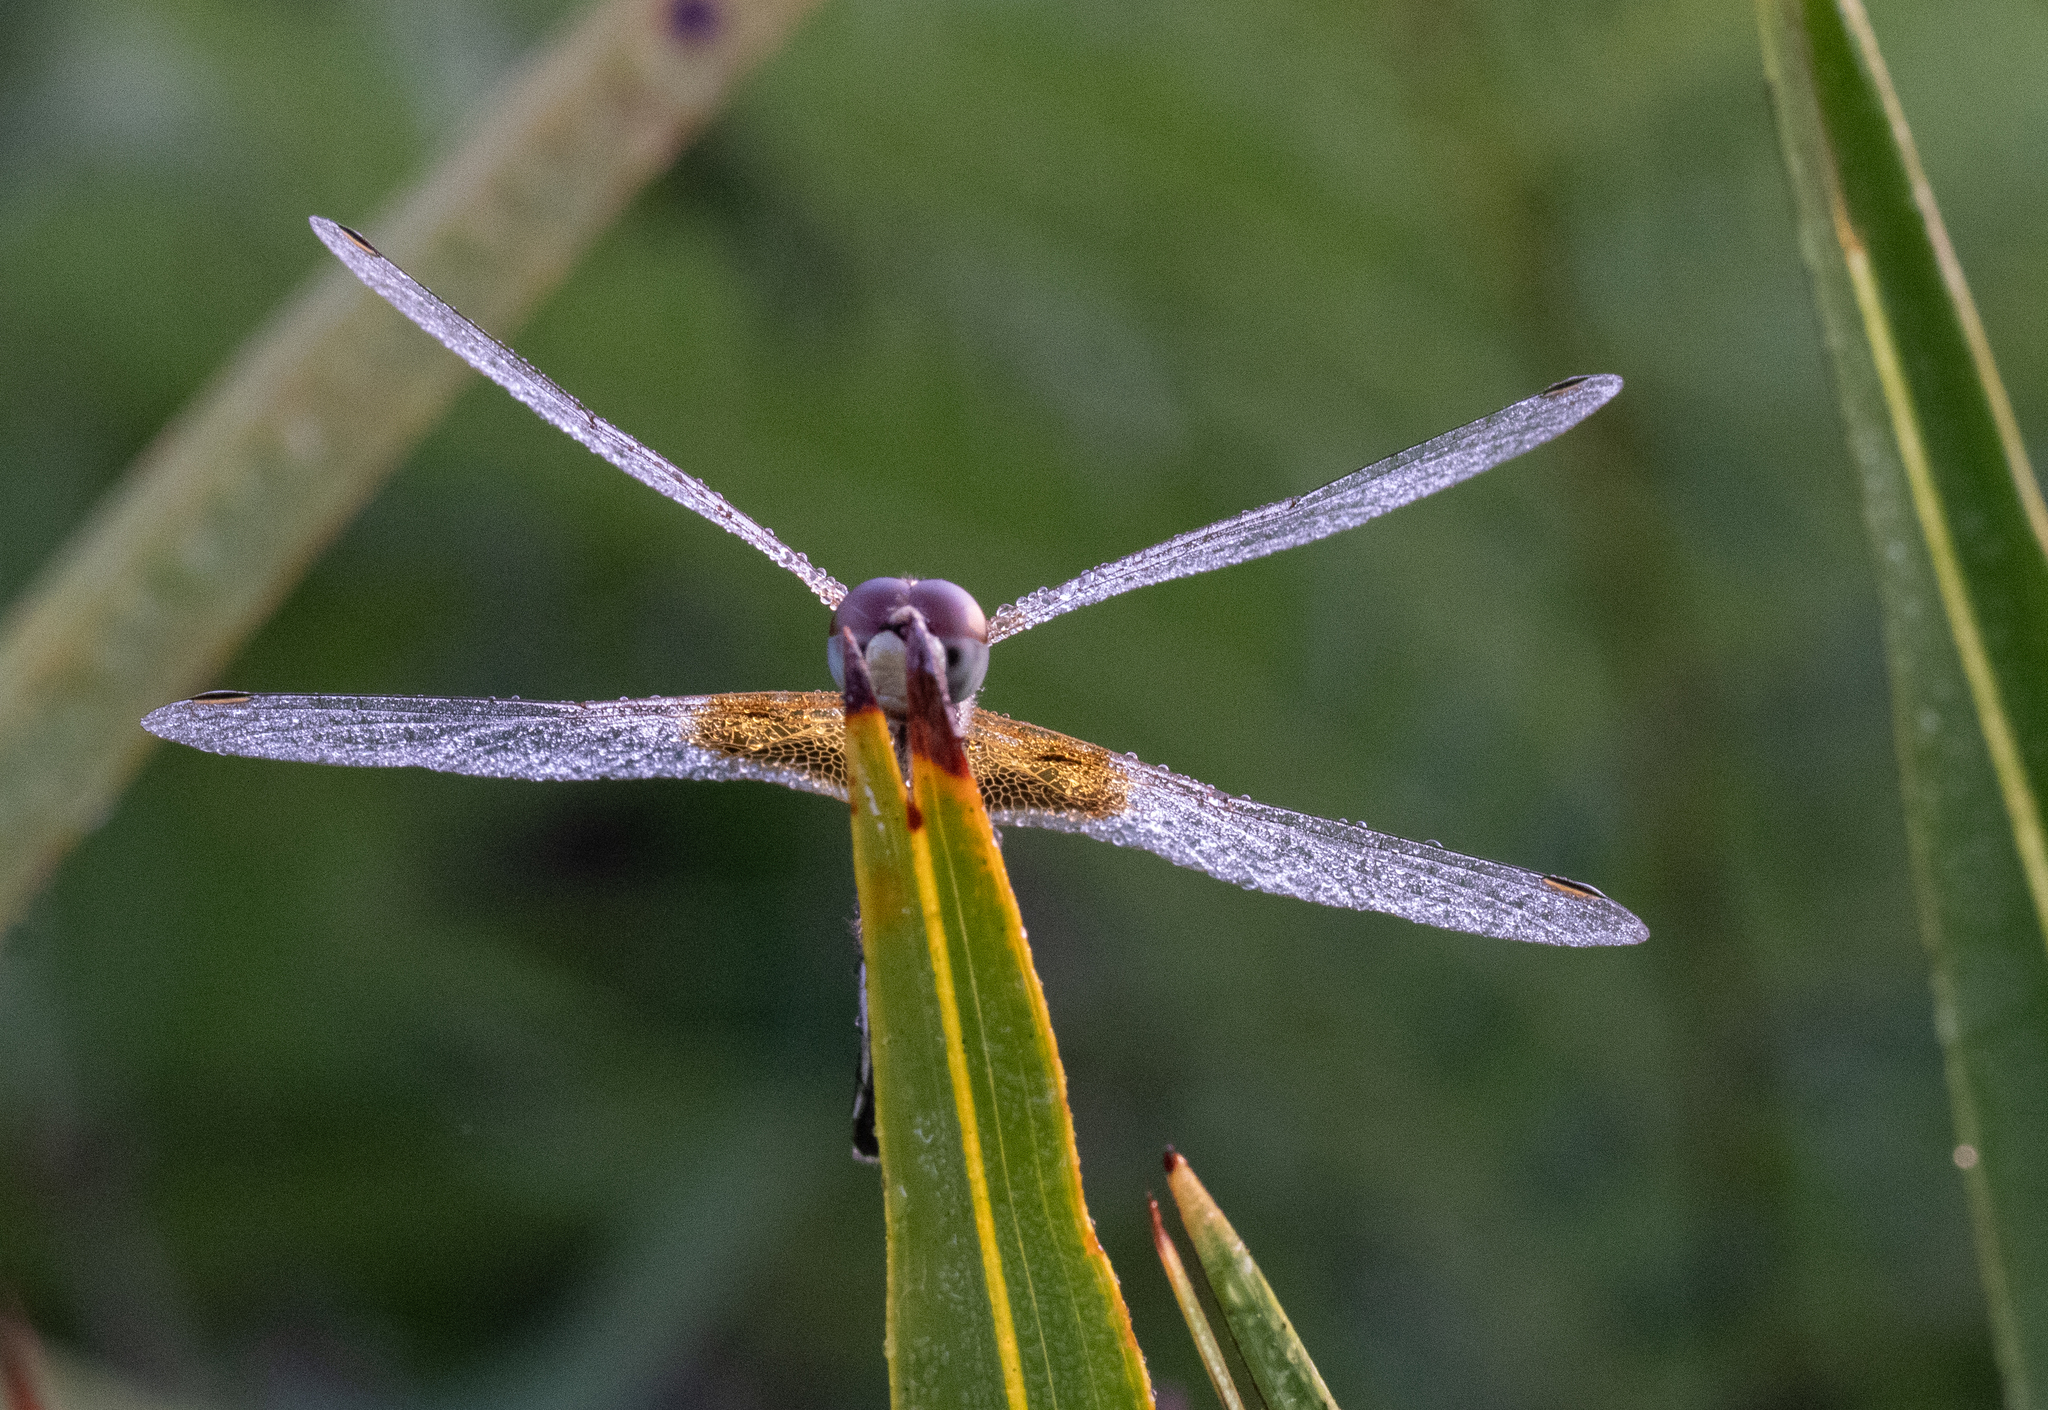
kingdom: Animalia
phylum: Arthropoda
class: Insecta
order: Odonata
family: Libellulidae
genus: Celithemis
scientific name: Celithemis amanda
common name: Amanda's pennant
